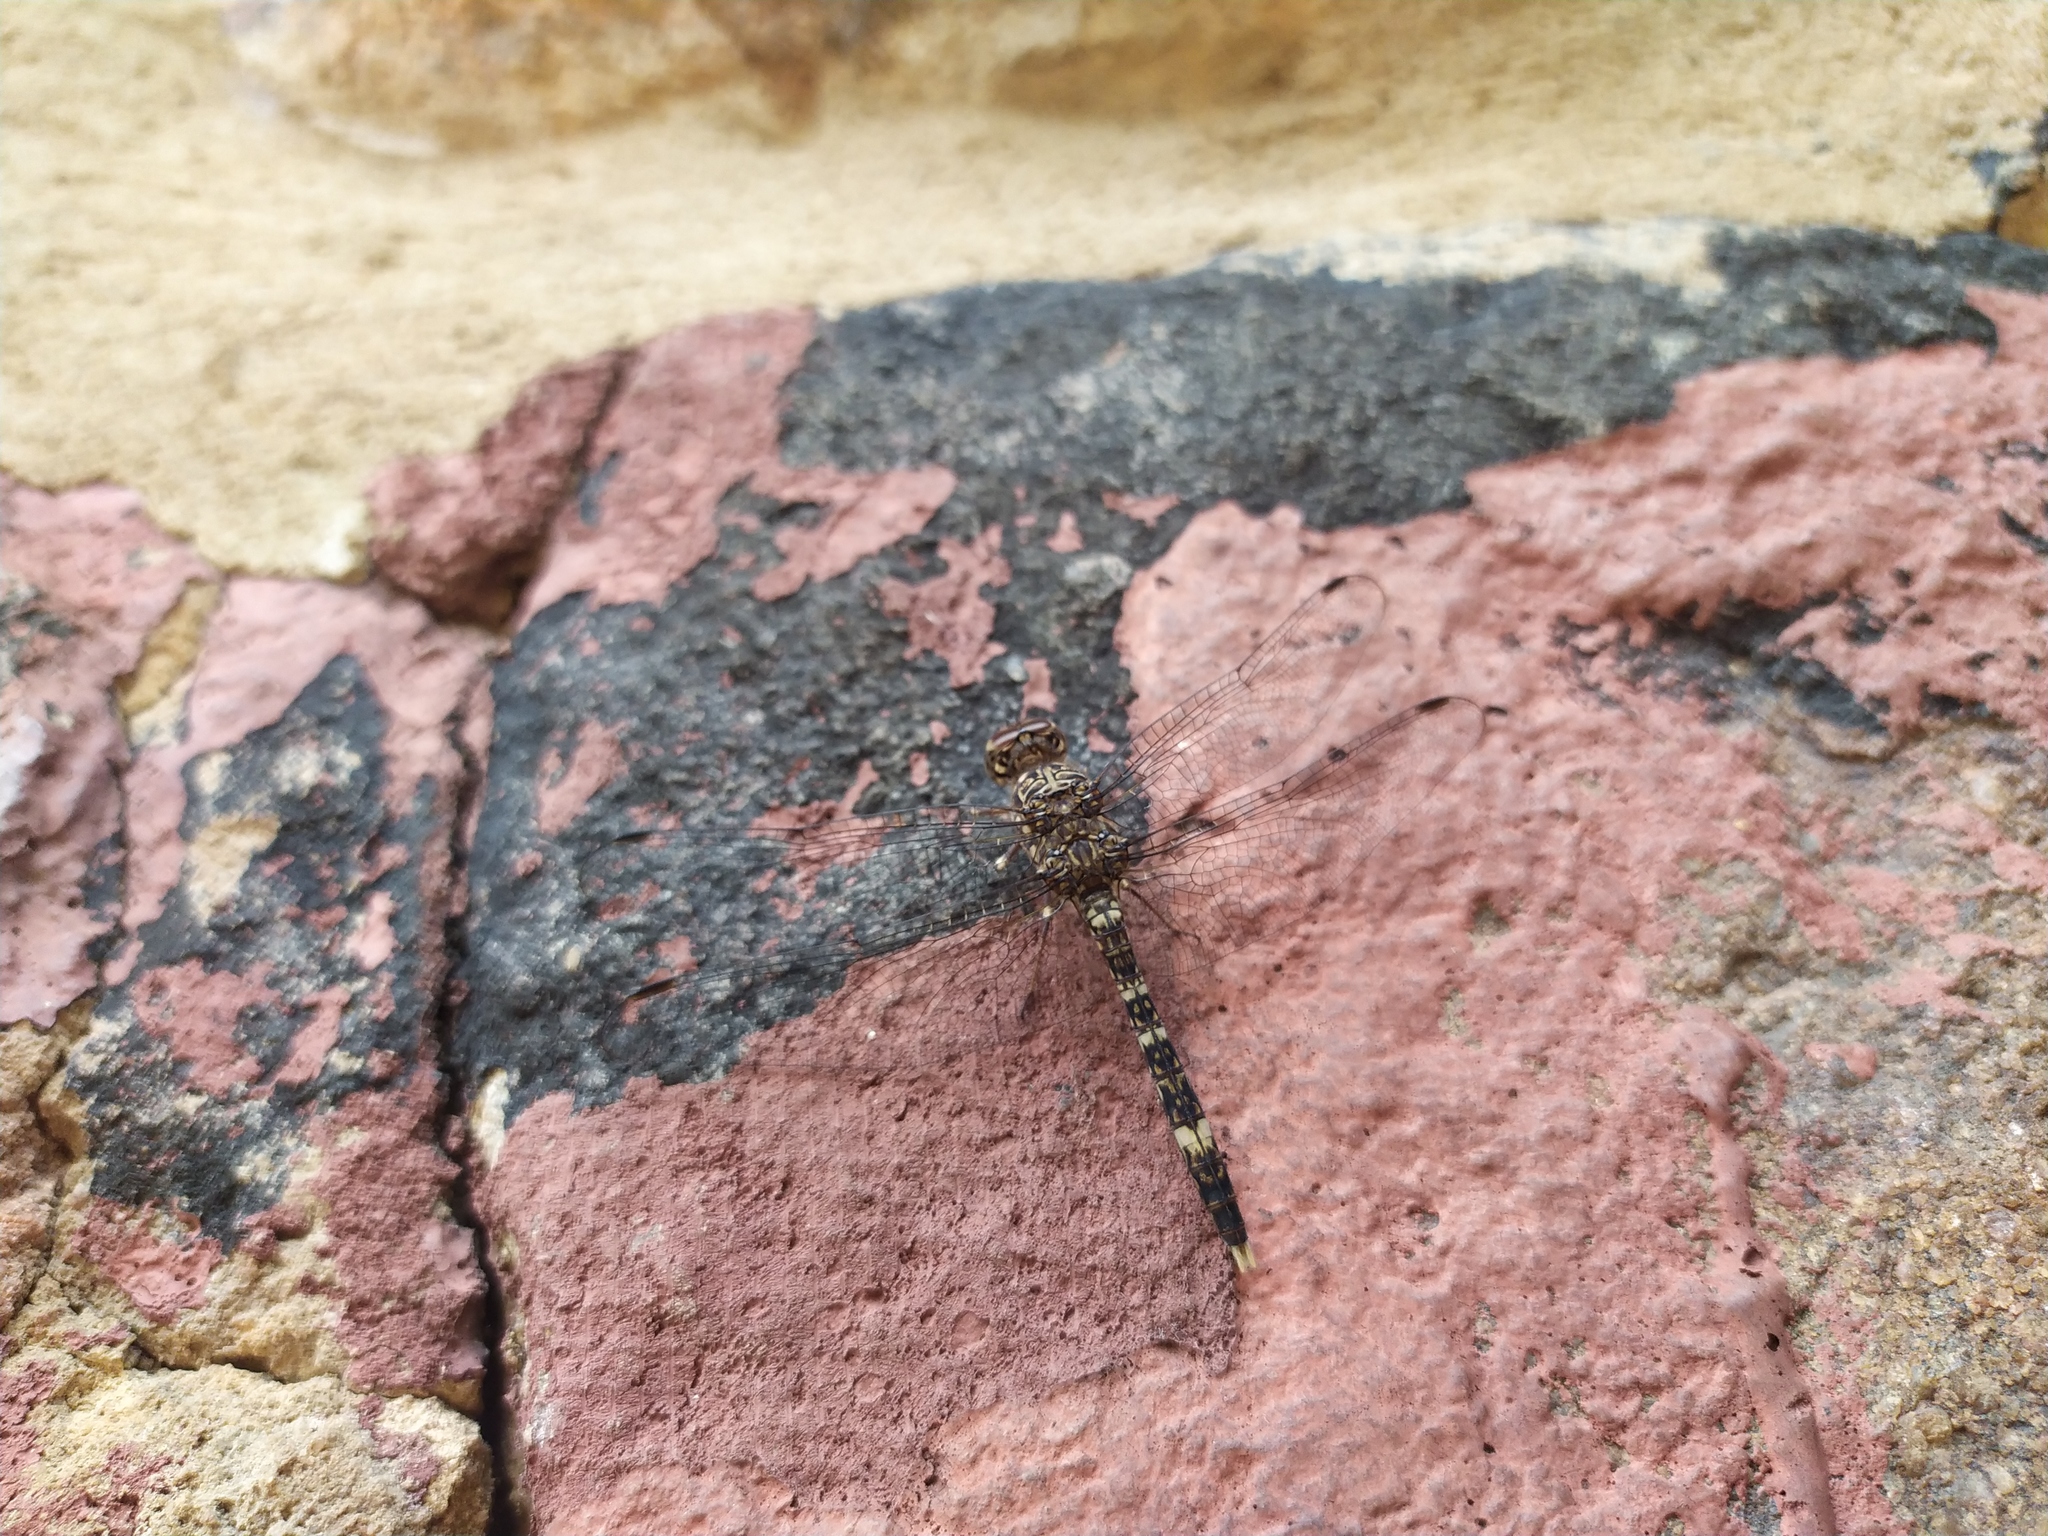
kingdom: Animalia
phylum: Arthropoda
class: Insecta
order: Odonata
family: Libellulidae
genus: Bradinopyga
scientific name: Bradinopyga cornuta
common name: Flecked wall-skimmer
